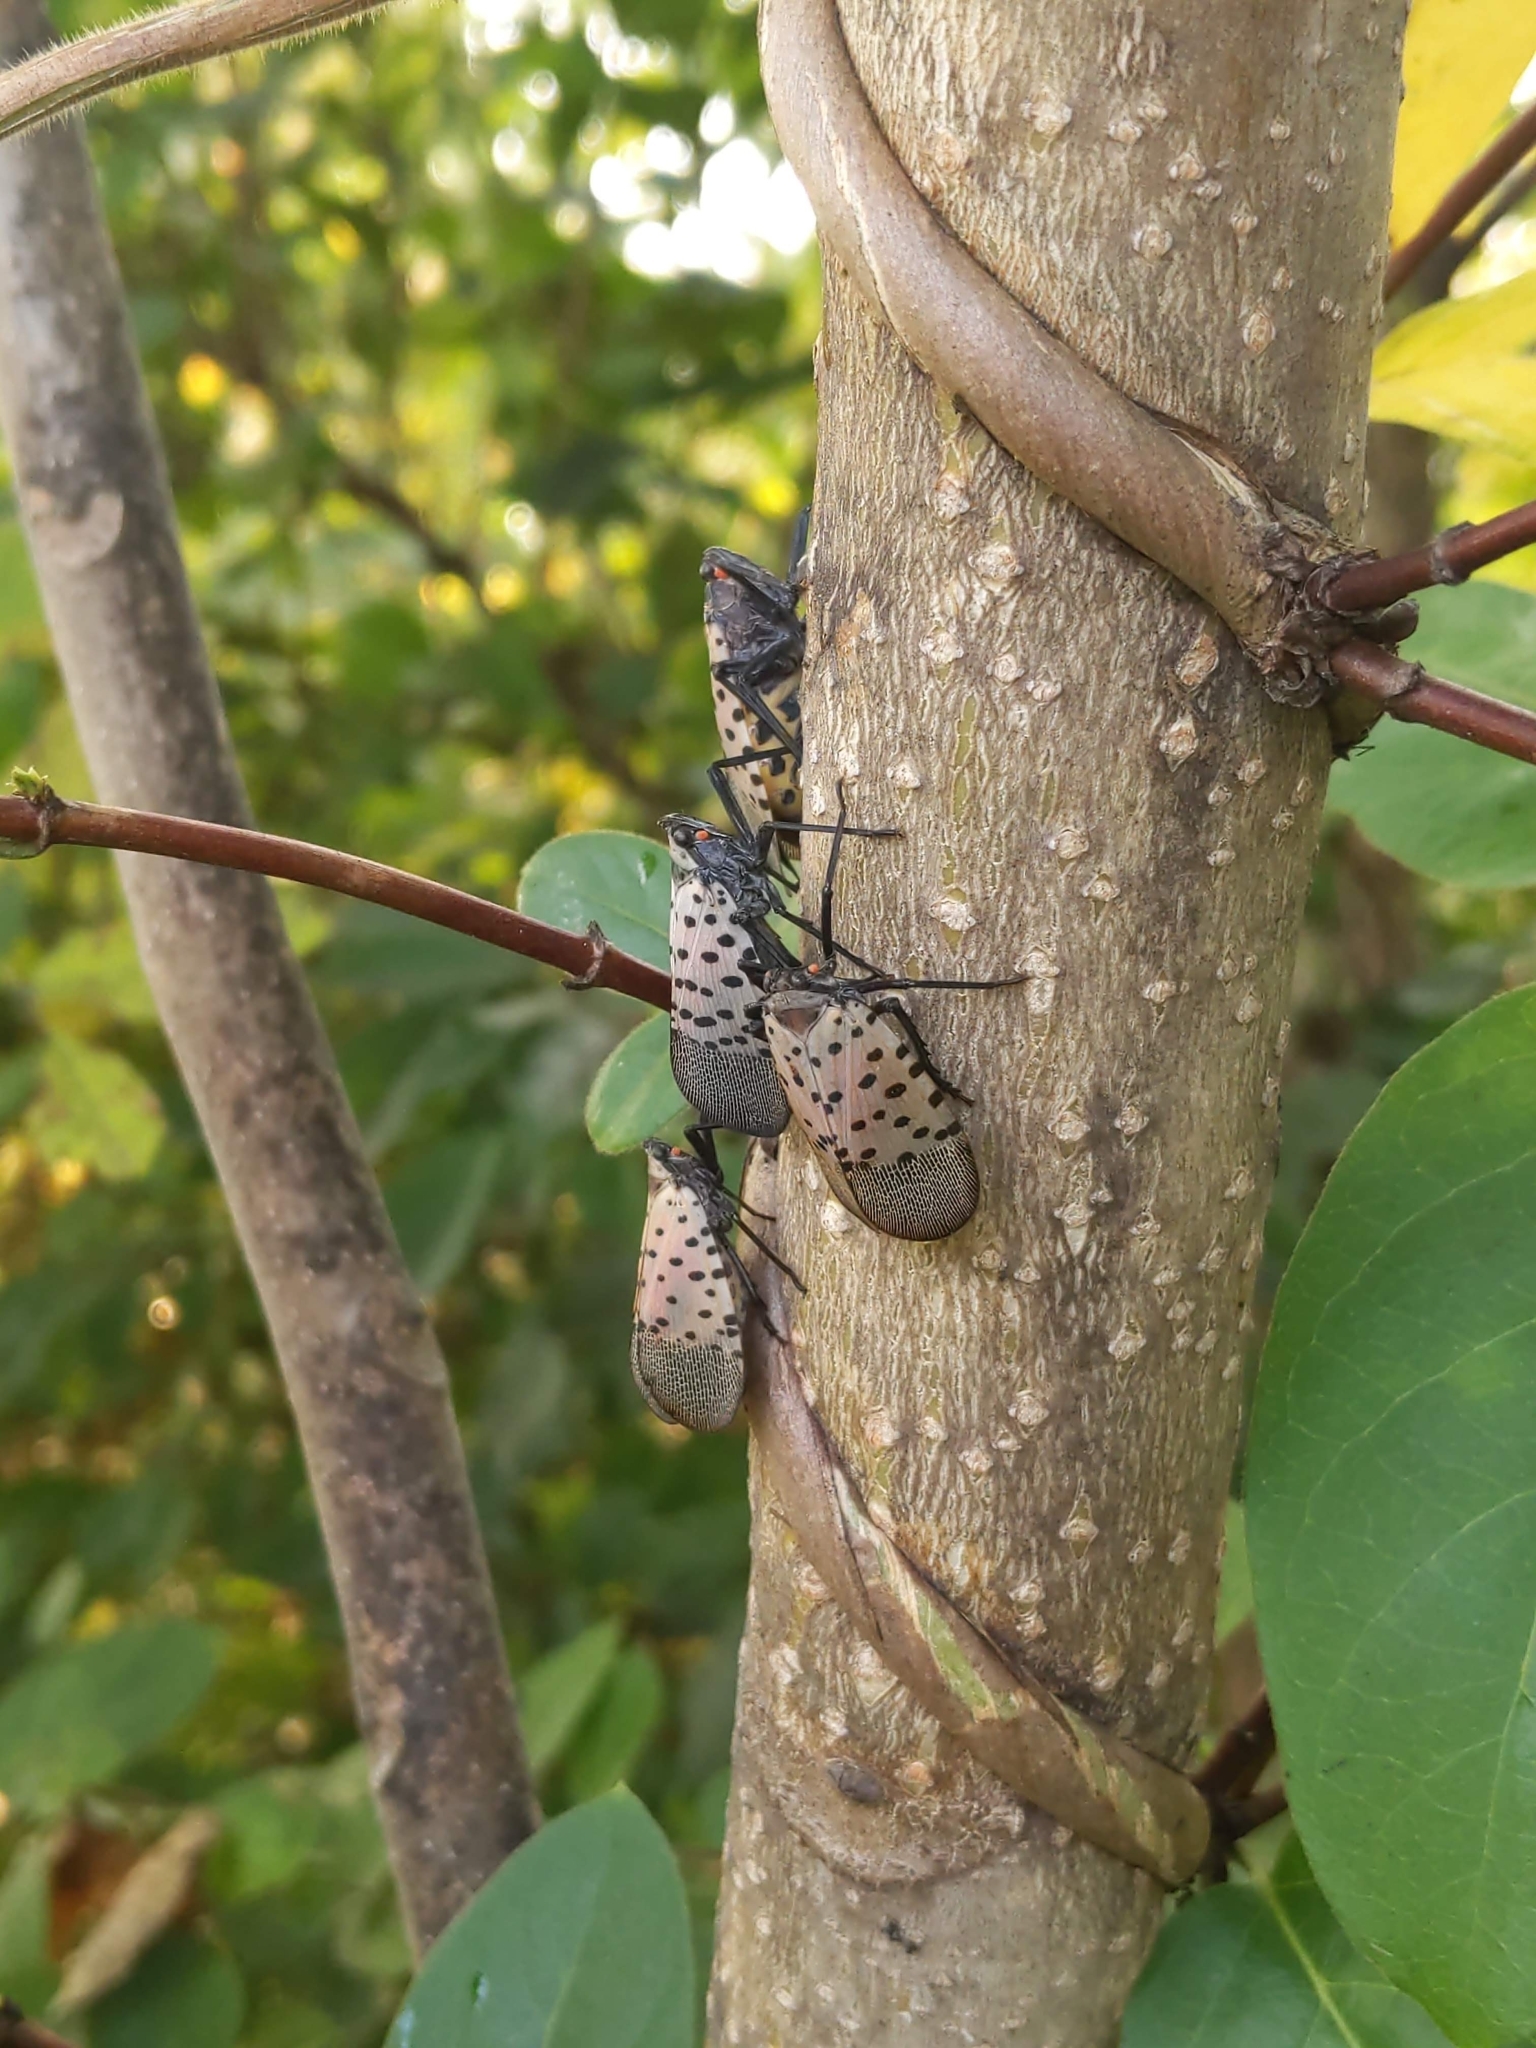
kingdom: Animalia
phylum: Arthropoda
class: Insecta
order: Hemiptera
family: Fulgoridae
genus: Lycorma
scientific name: Lycorma delicatula
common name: Spotted lanternfly
